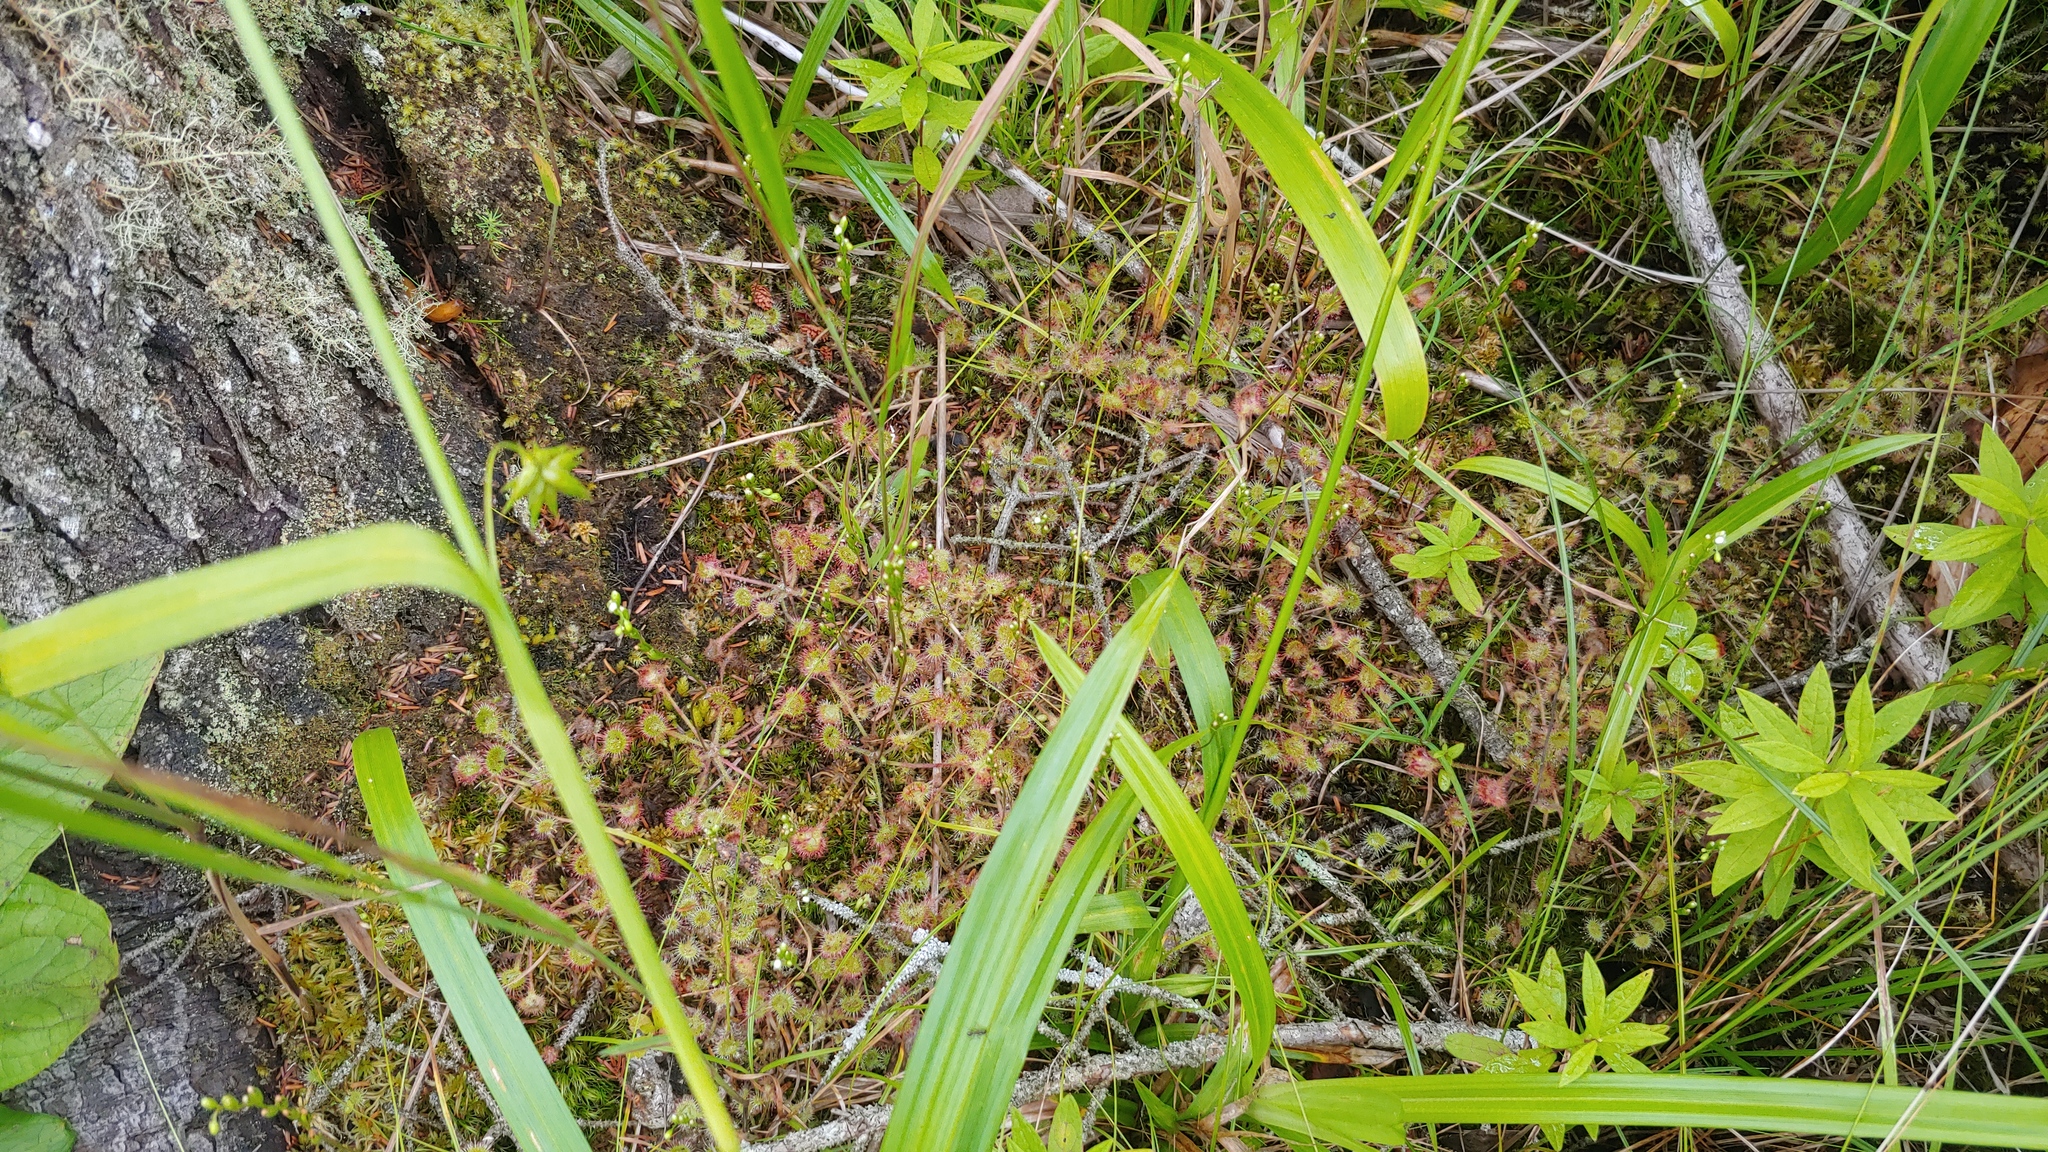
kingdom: Plantae
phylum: Tracheophyta
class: Magnoliopsida
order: Caryophyllales
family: Droseraceae
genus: Drosera
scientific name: Drosera rotundifolia
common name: Round-leaved sundew
